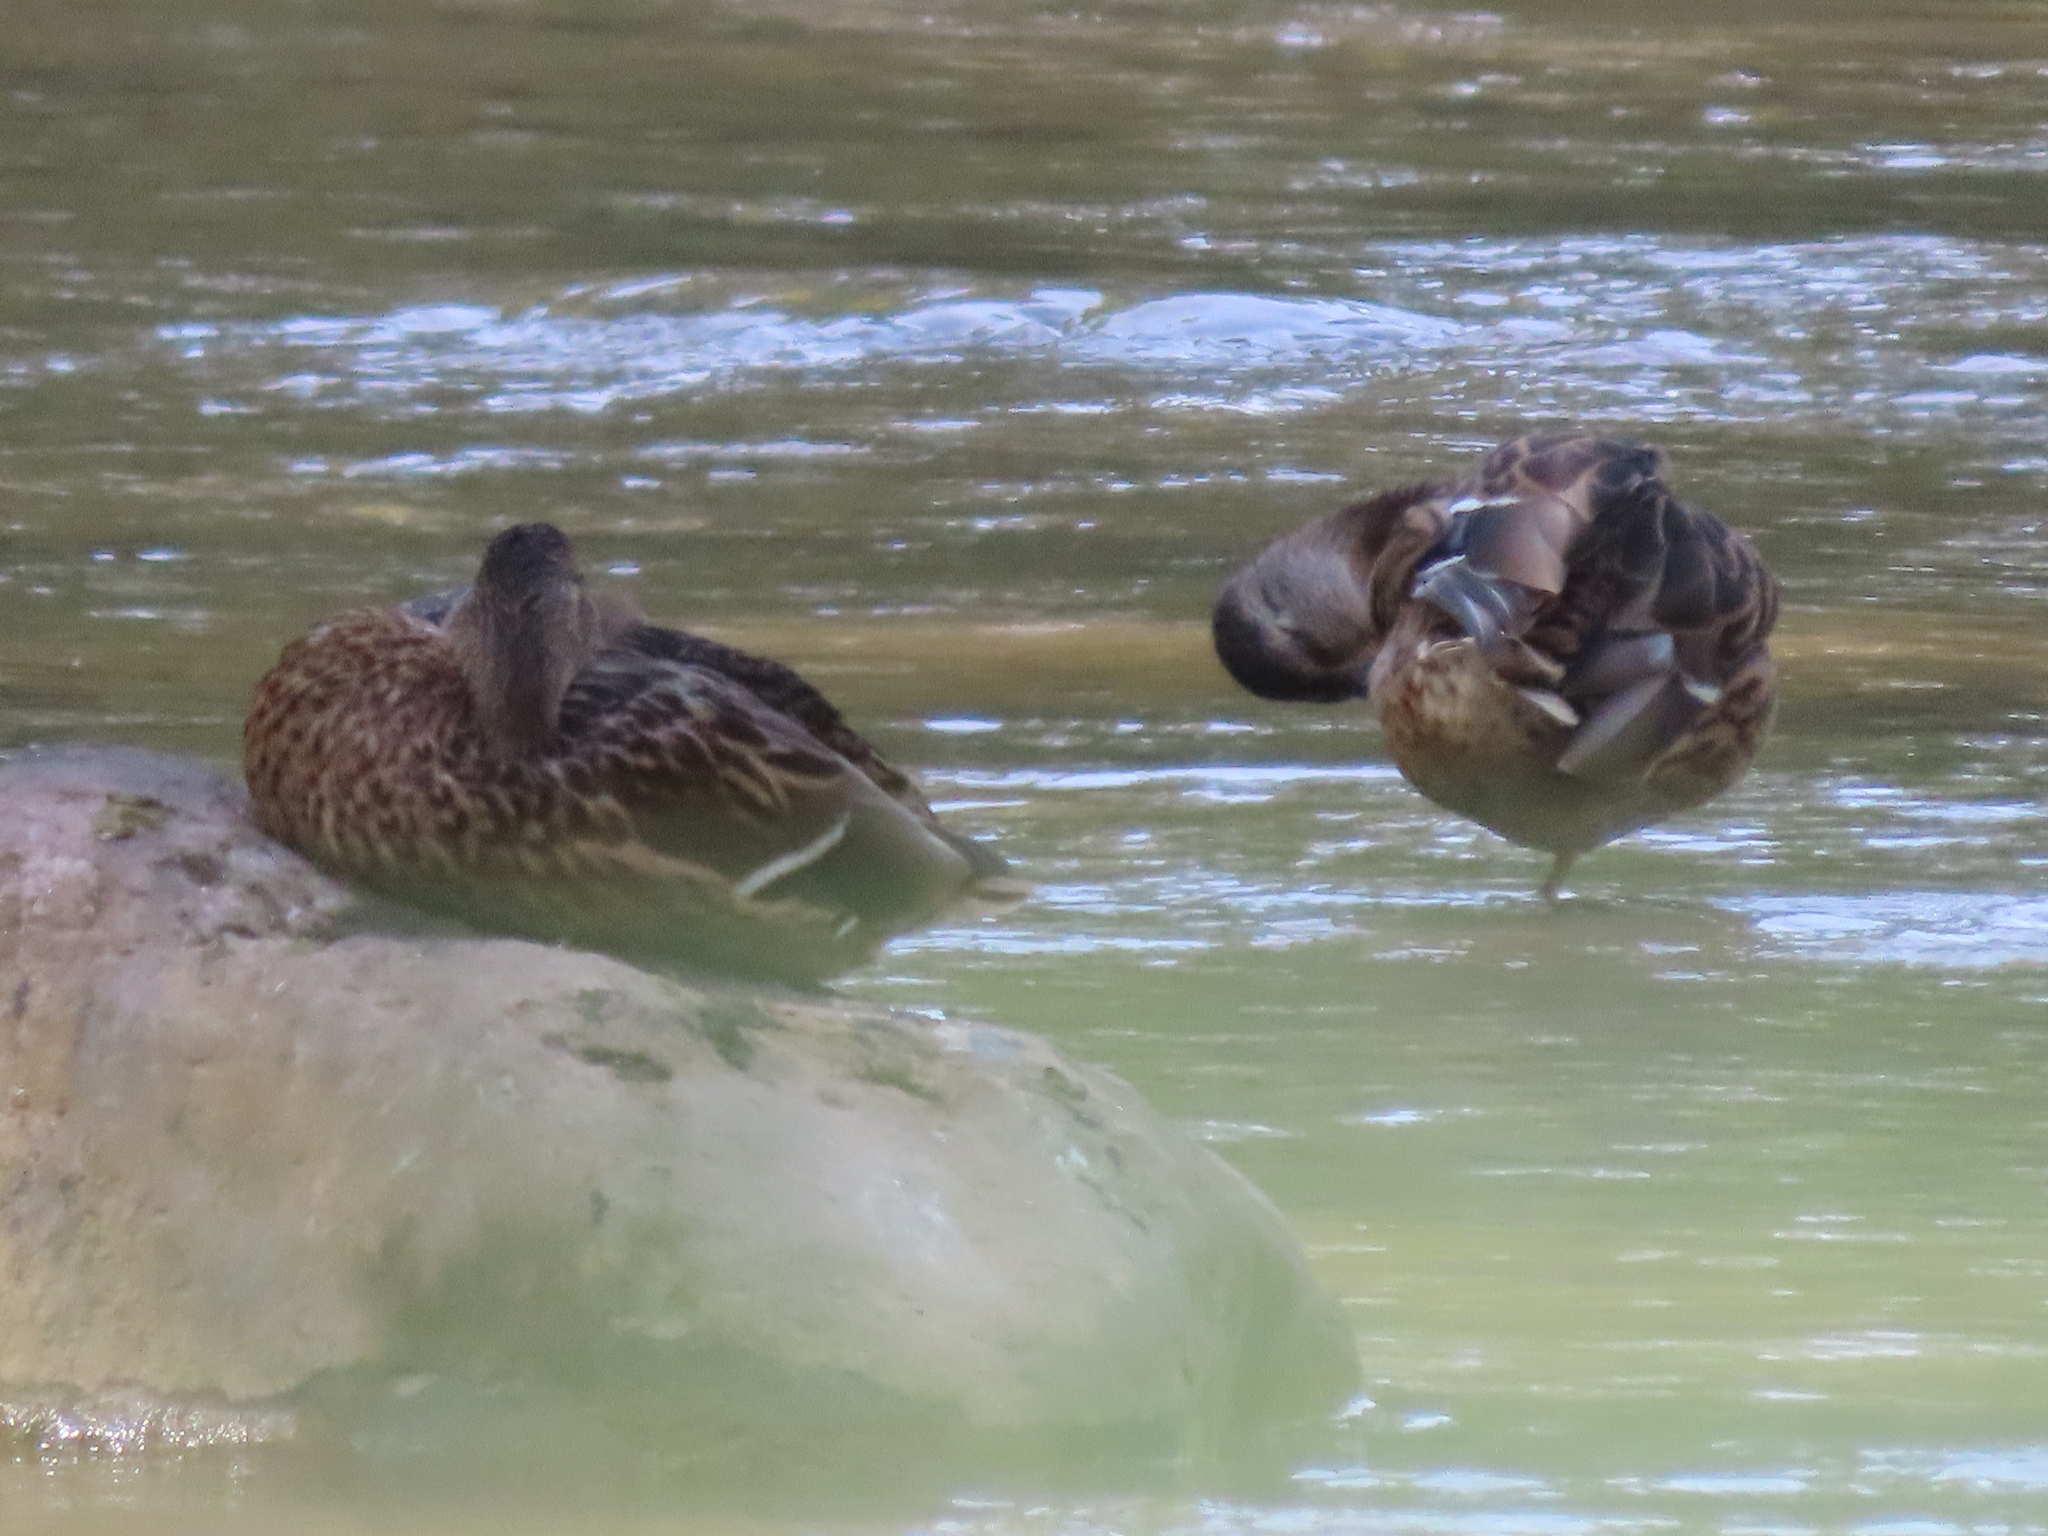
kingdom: Animalia
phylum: Chordata
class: Aves
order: Anseriformes
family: Anatidae
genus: Anas
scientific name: Anas platyrhynchos
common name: Mallard
